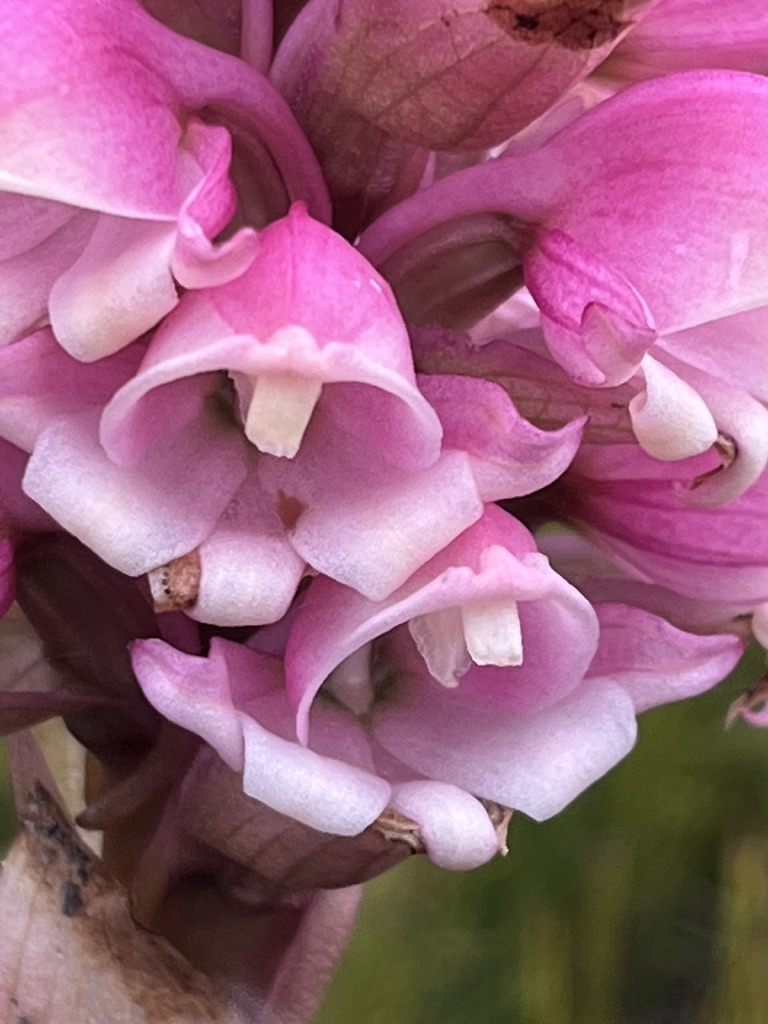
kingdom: Plantae
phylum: Tracheophyta
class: Liliopsida
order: Asparagales
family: Orchidaceae
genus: Satyrium
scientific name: Satyrium carneum
